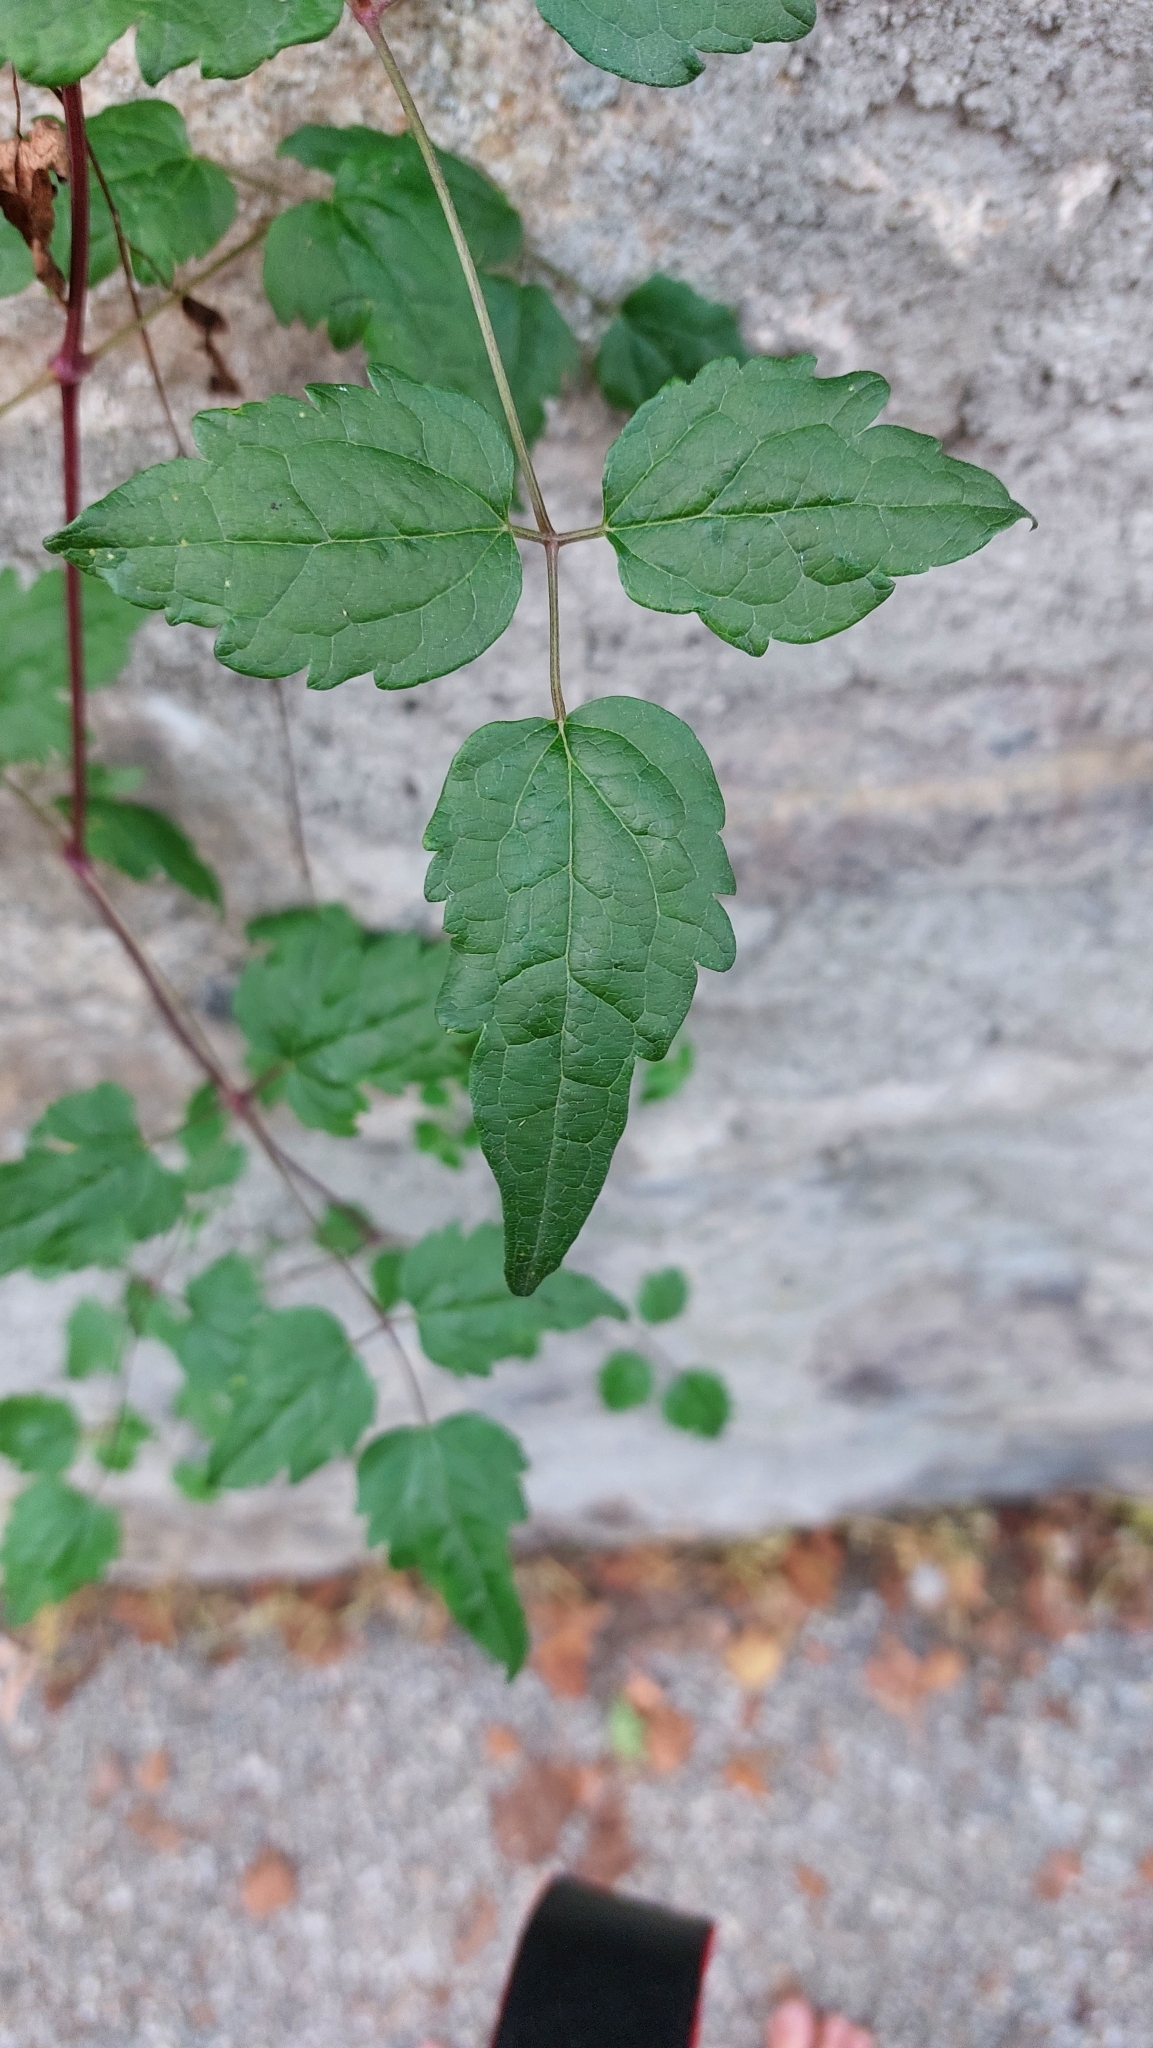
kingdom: Plantae
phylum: Tracheophyta
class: Magnoliopsida
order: Ranunculales
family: Ranunculaceae
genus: Clematis
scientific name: Clematis vitalba
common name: Evergreen clematis
